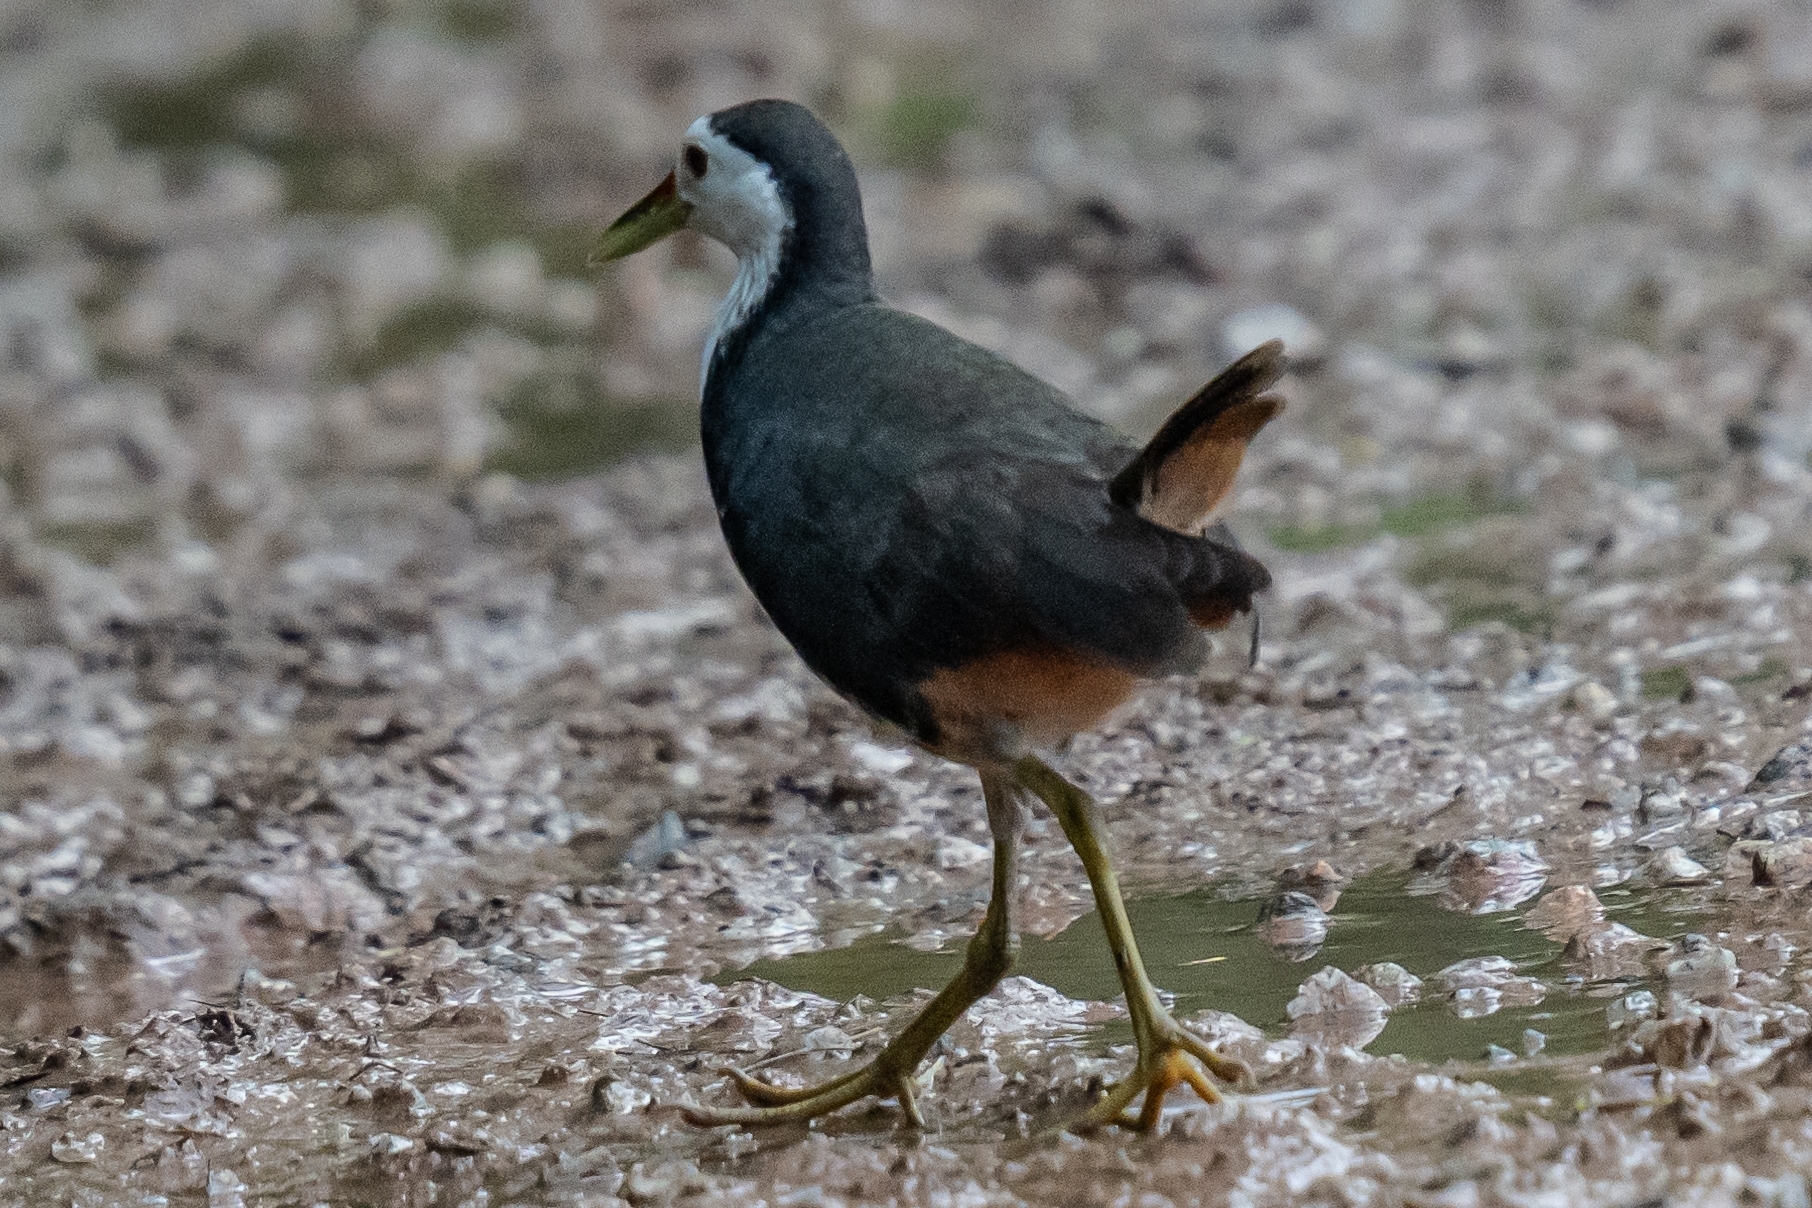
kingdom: Animalia
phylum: Chordata
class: Aves
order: Gruiformes
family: Rallidae
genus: Amaurornis
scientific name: Amaurornis phoenicurus
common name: White-breasted waterhen
